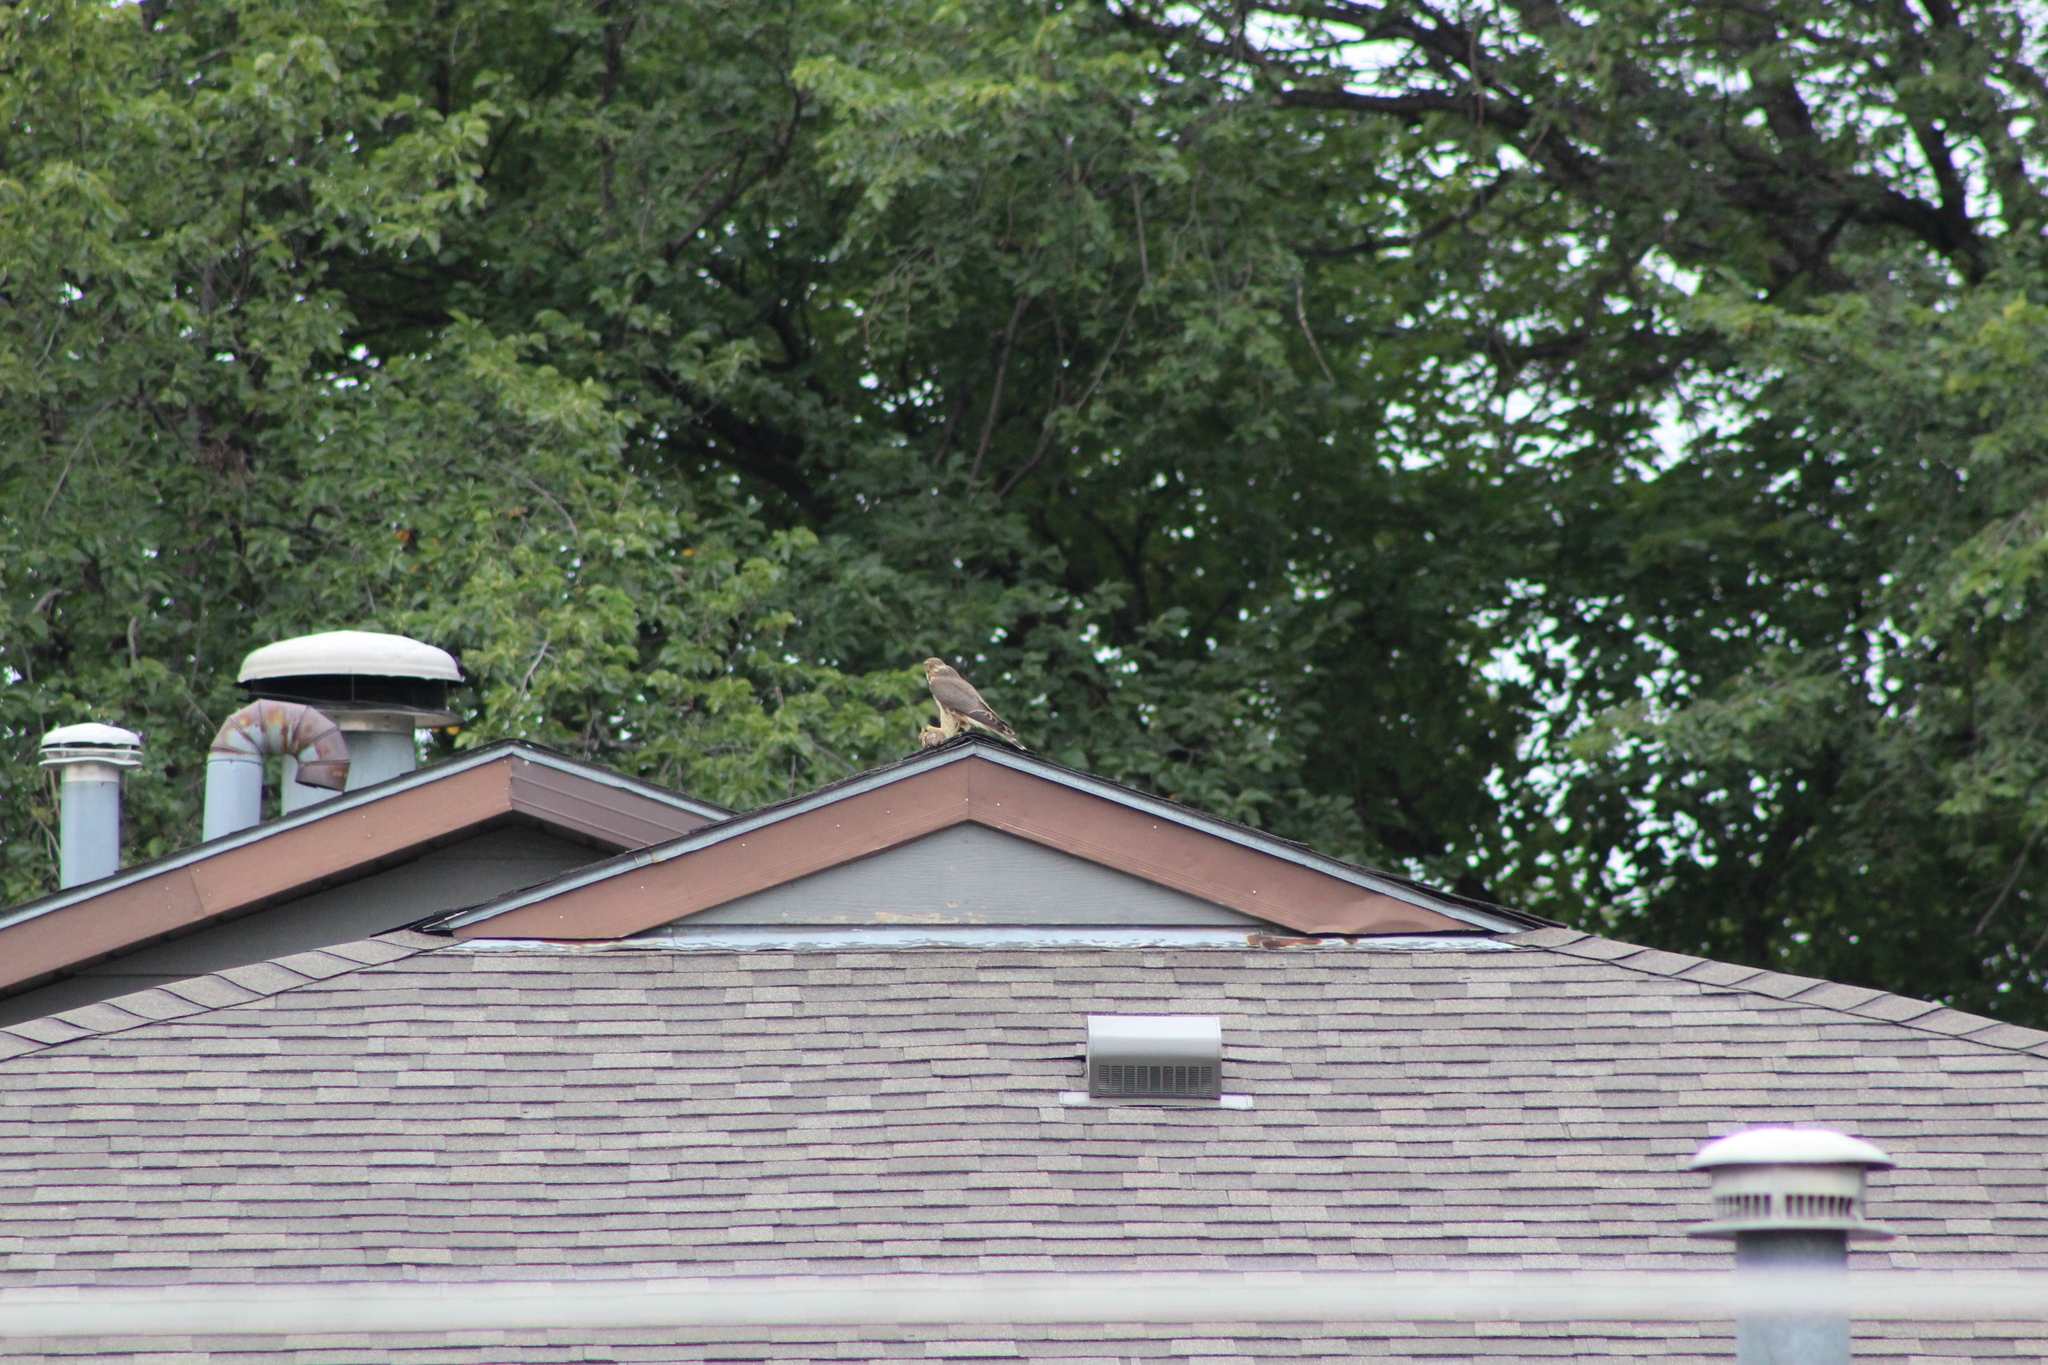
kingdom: Animalia
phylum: Chordata
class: Aves
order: Falconiformes
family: Falconidae
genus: Falco
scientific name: Falco columbarius
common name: Merlin
